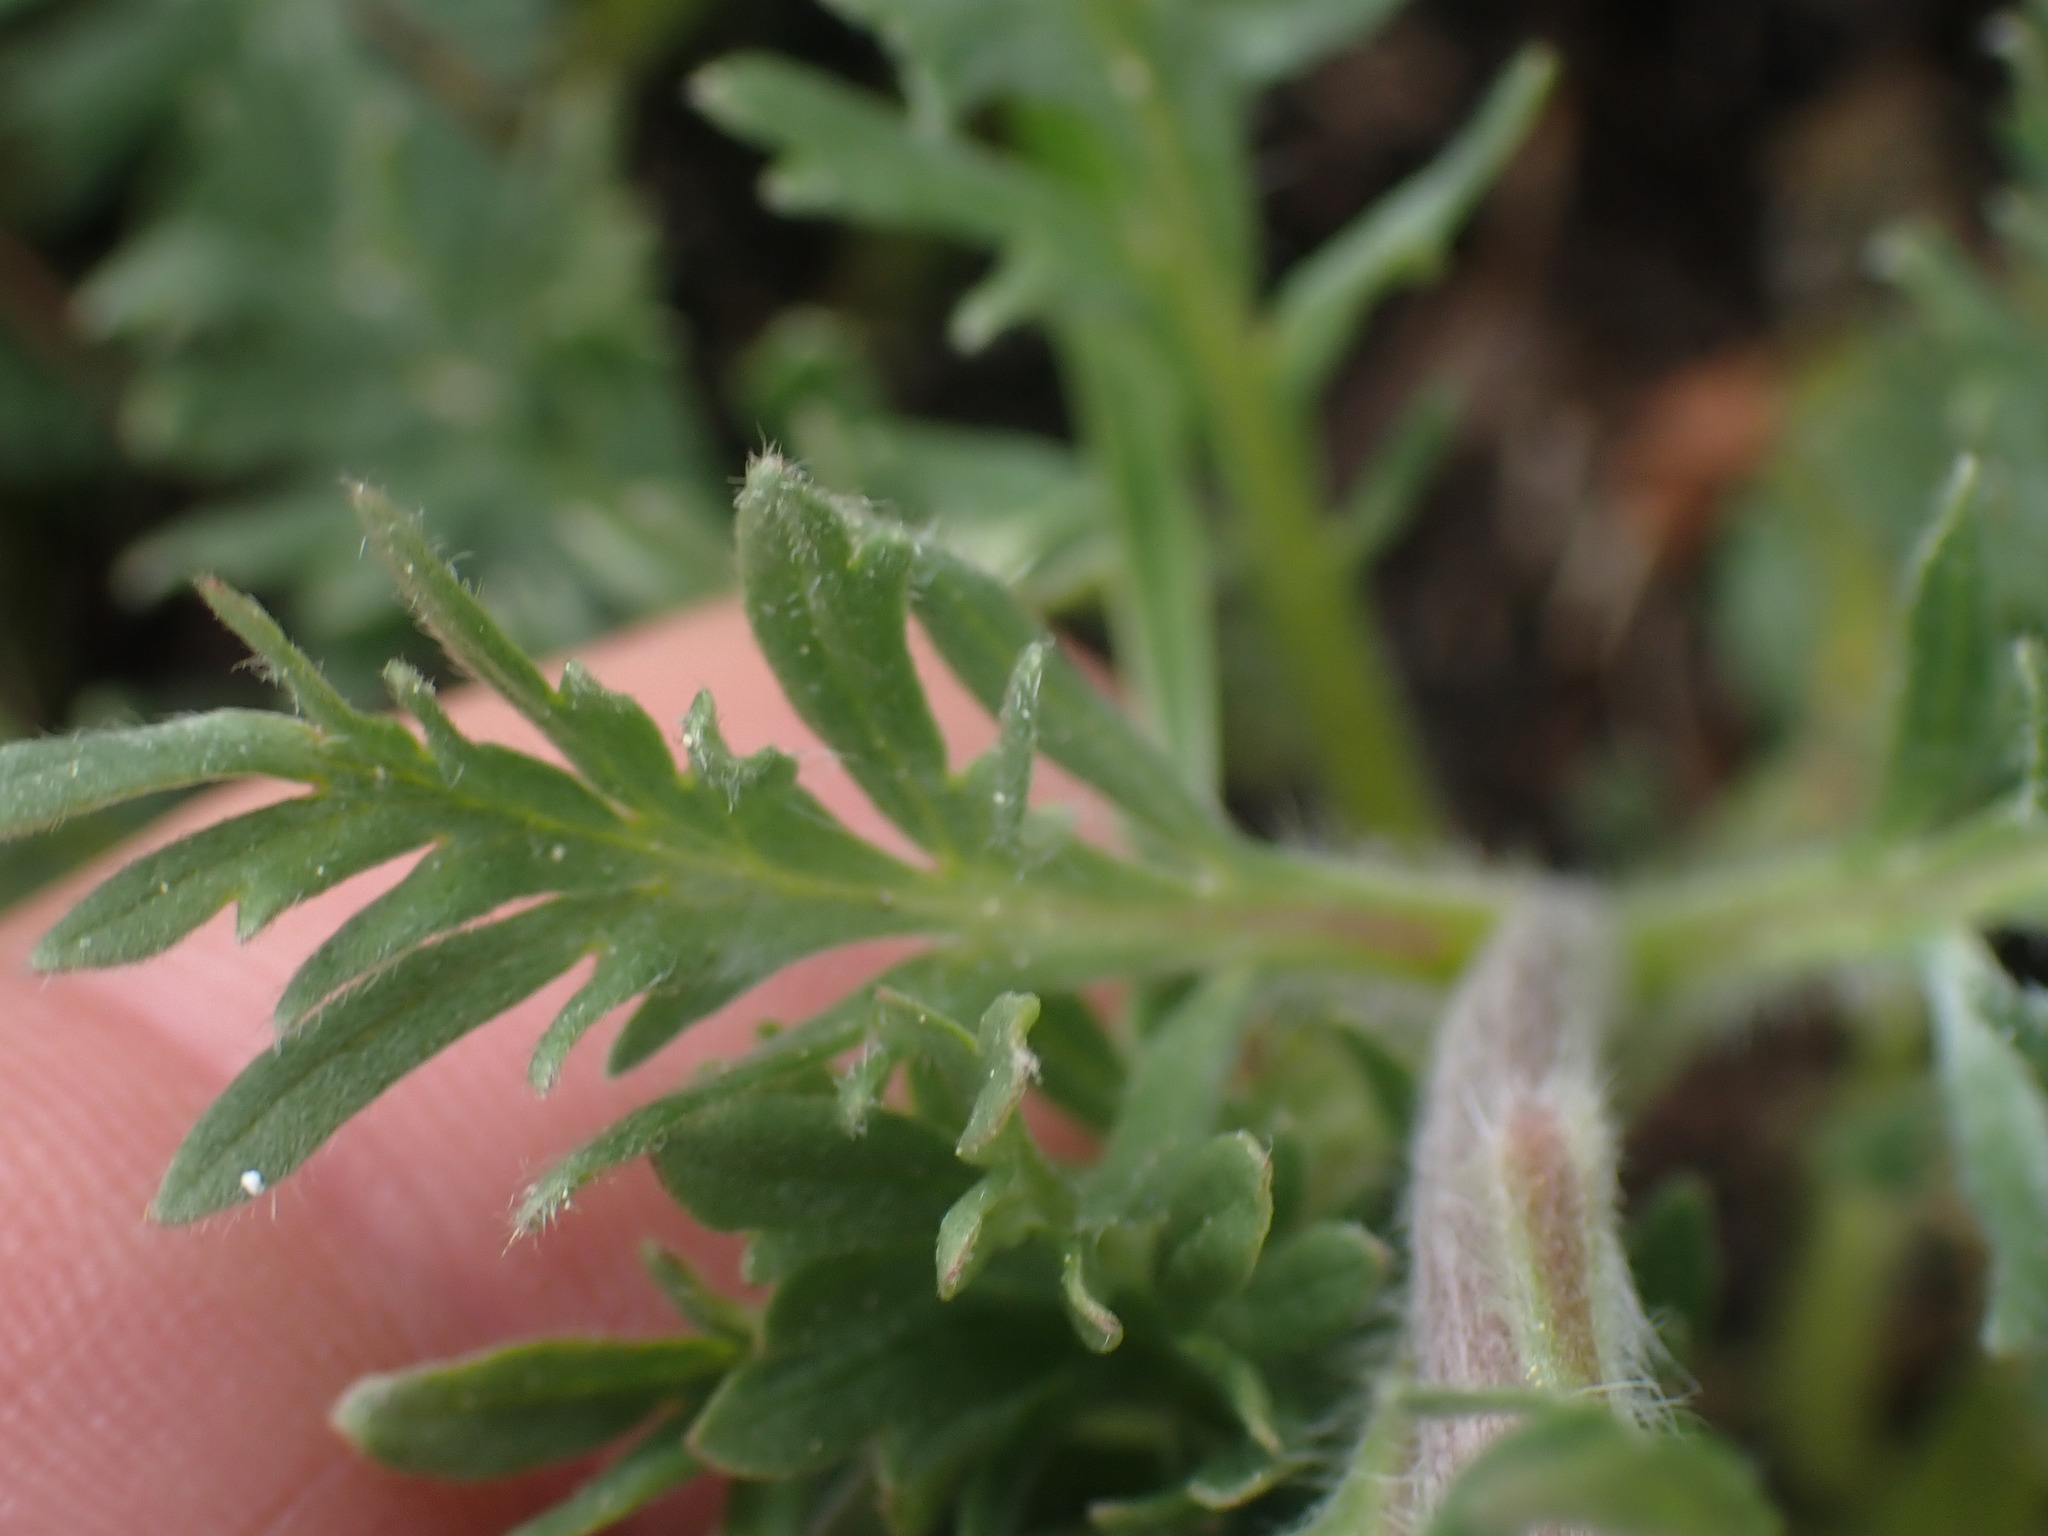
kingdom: Plantae
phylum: Tracheophyta
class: Magnoliopsida
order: Boraginales
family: Hydrophyllaceae
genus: Phacelia
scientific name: Phacelia sericea
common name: Silky phacelia
